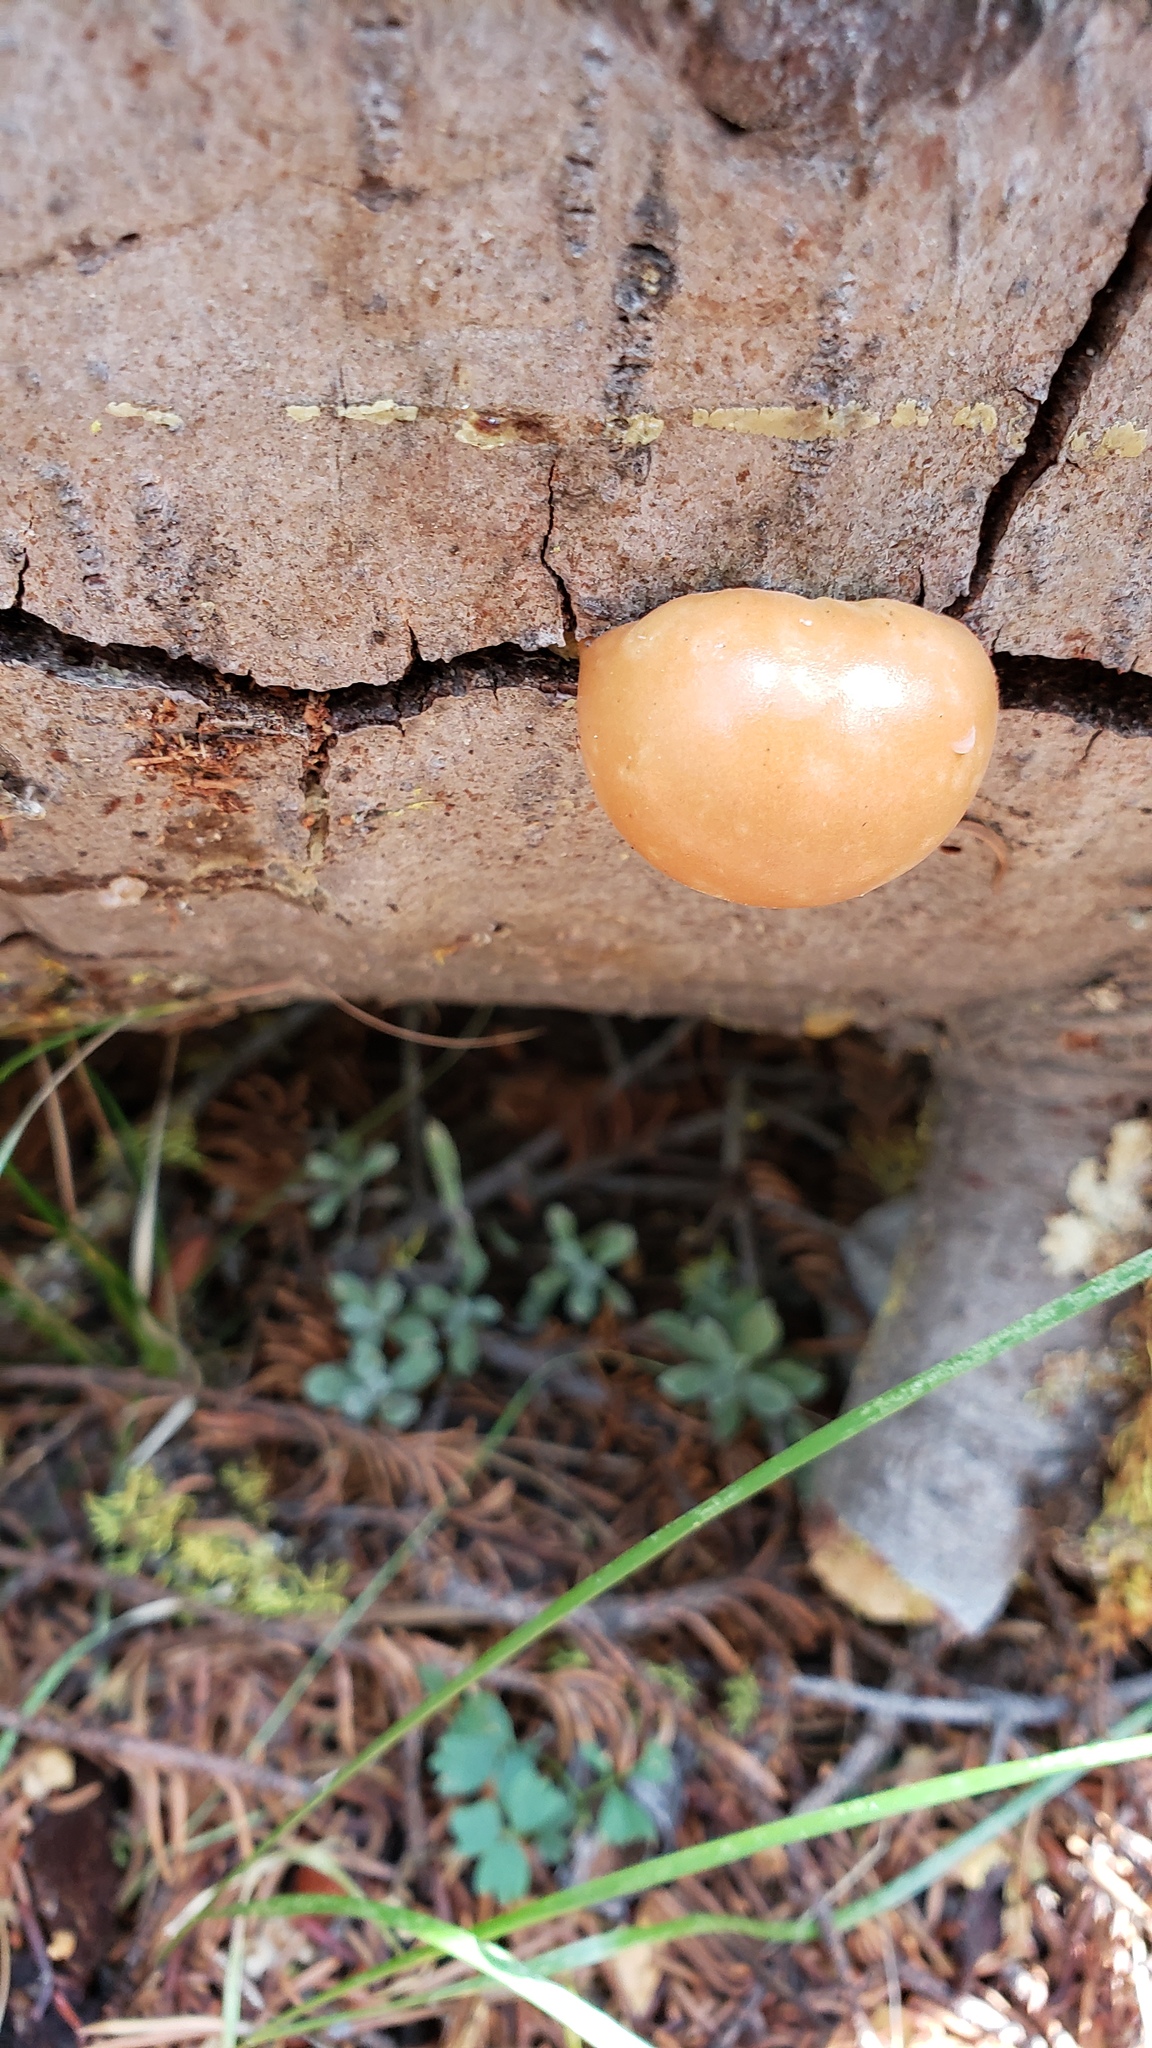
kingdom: Fungi
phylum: Basidiomycota
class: Agaricomycetes
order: Polyporales
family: Polyporaceae
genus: Cryptoporus
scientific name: Cryptoporus volvatus
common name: Veiled polypore
